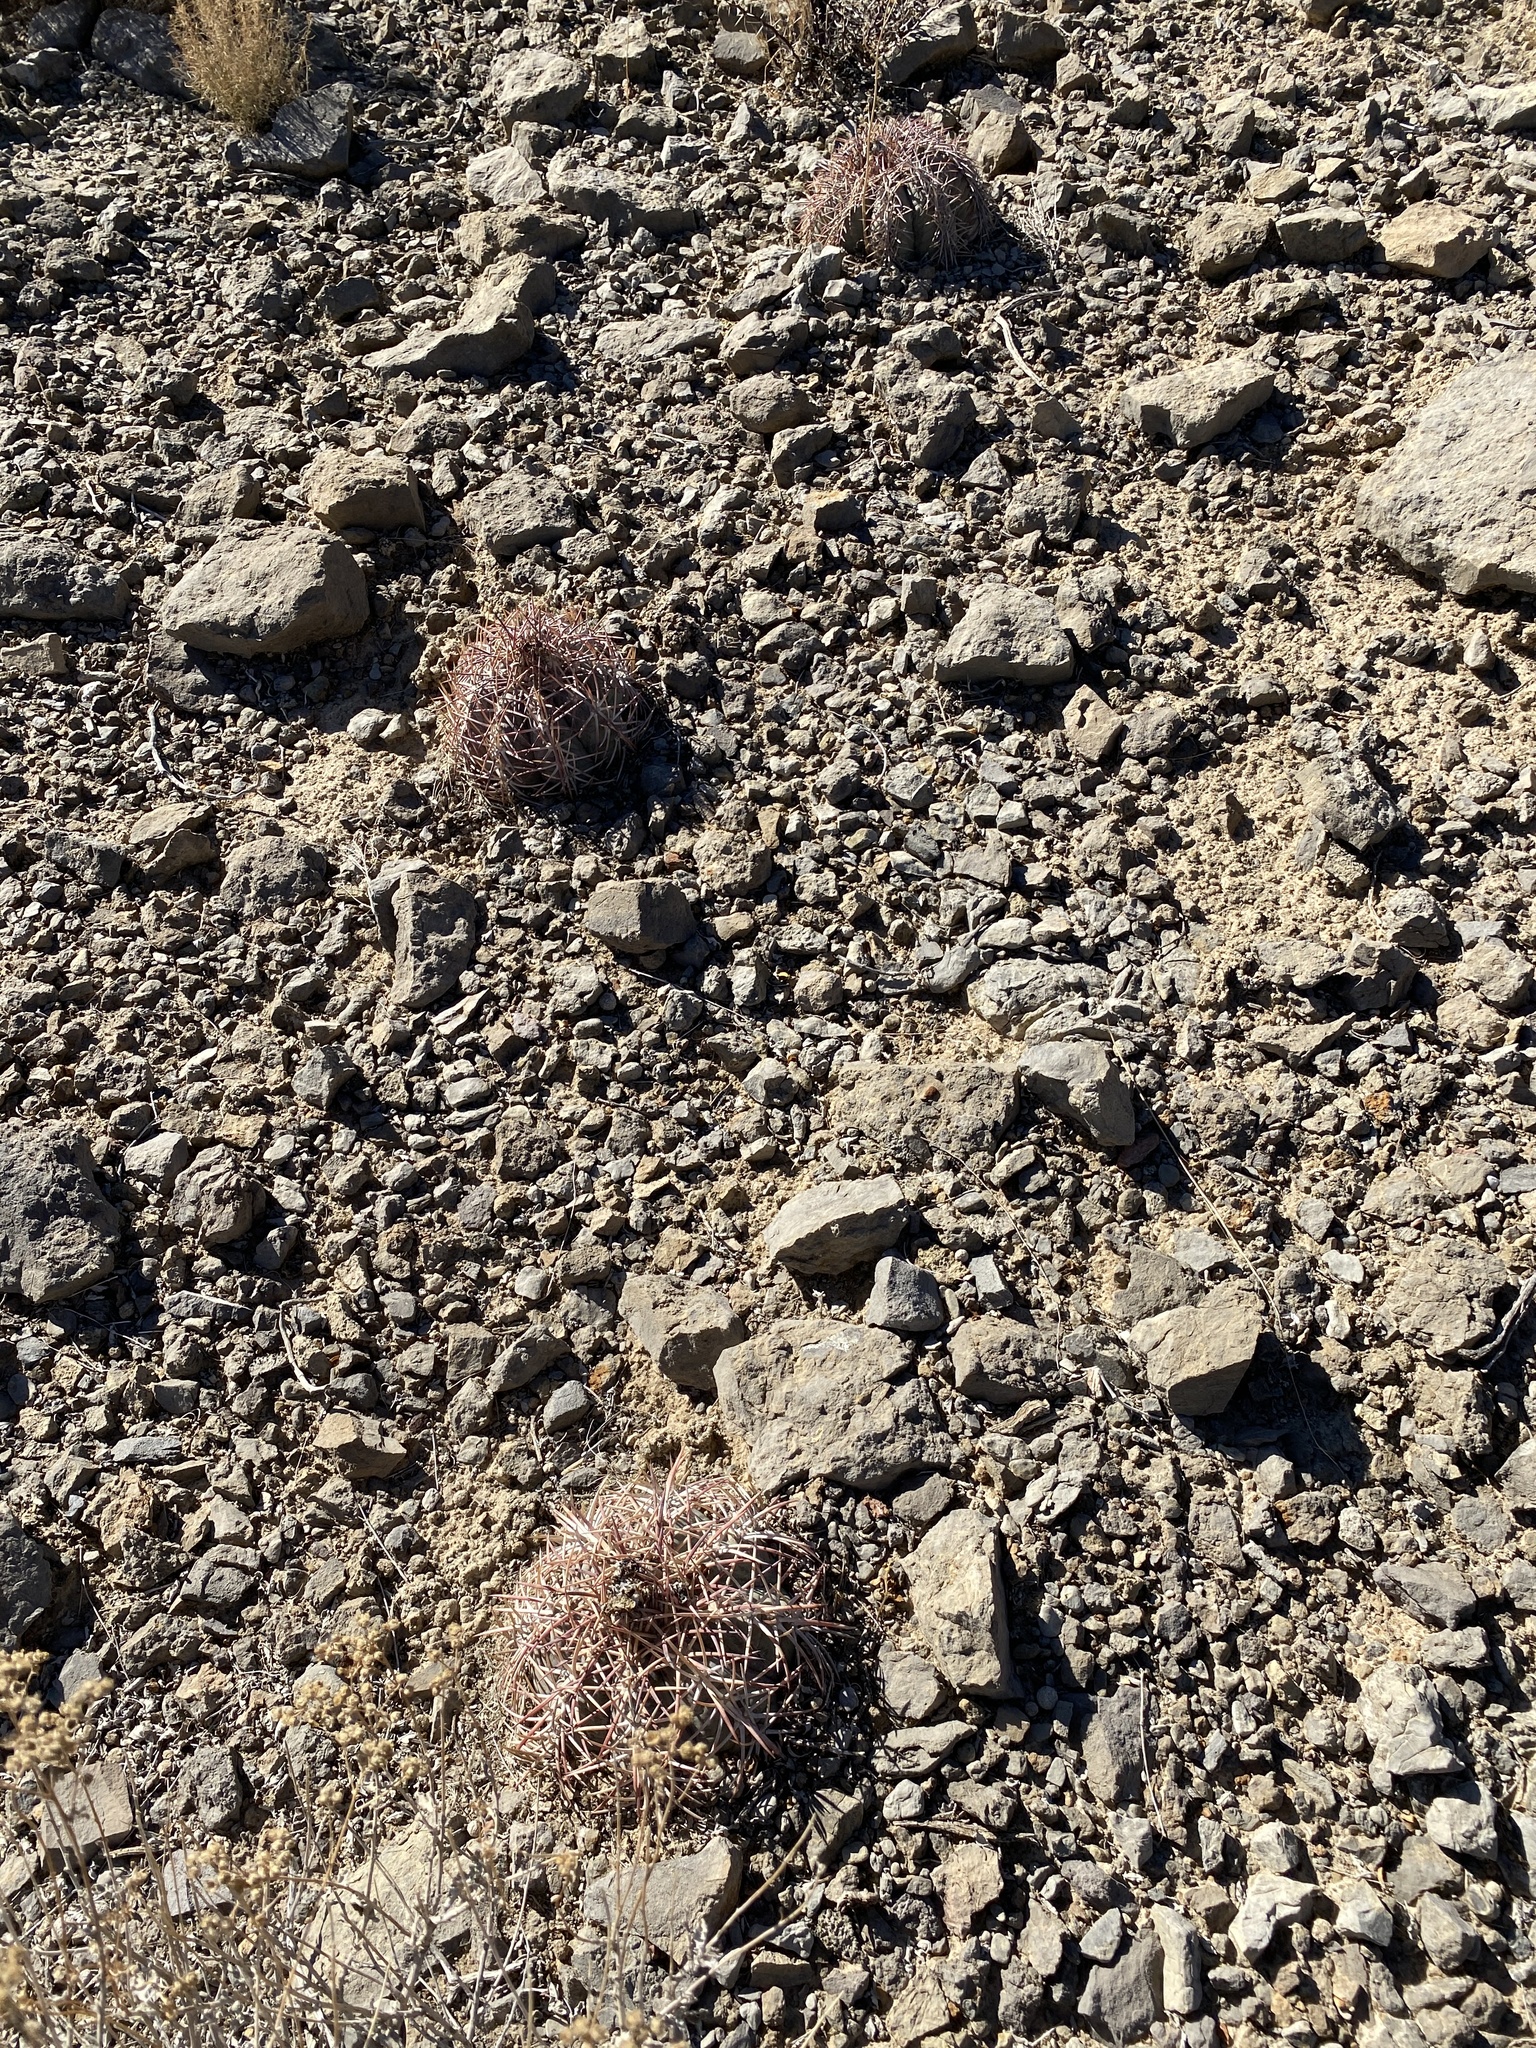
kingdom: Plantae
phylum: Tracheophyta
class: Magnoliopsida
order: Caryophyllales
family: Cactaceae
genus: Echinocactus
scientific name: Echinocactus horizonthalonius
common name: Devilshead
